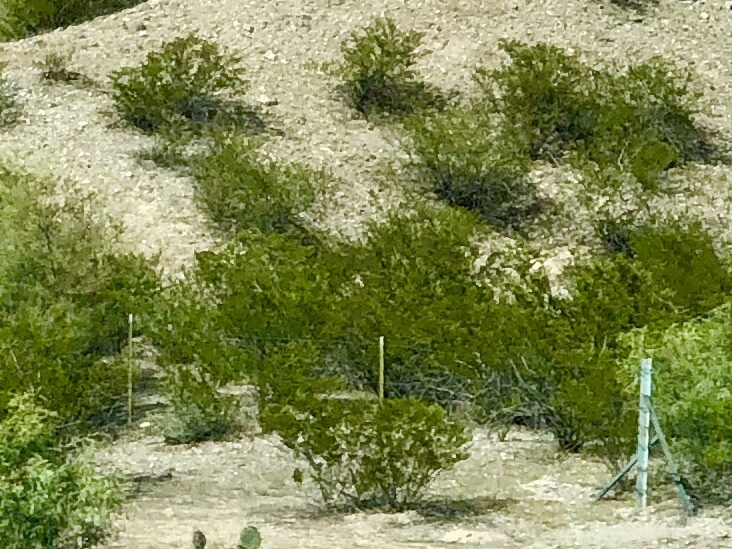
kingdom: Plantae
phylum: Tracheophyta
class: Magnoliopsida
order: Zygophyllales
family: Zygophyllaceae
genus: Larrea
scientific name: Larrea tridentata
